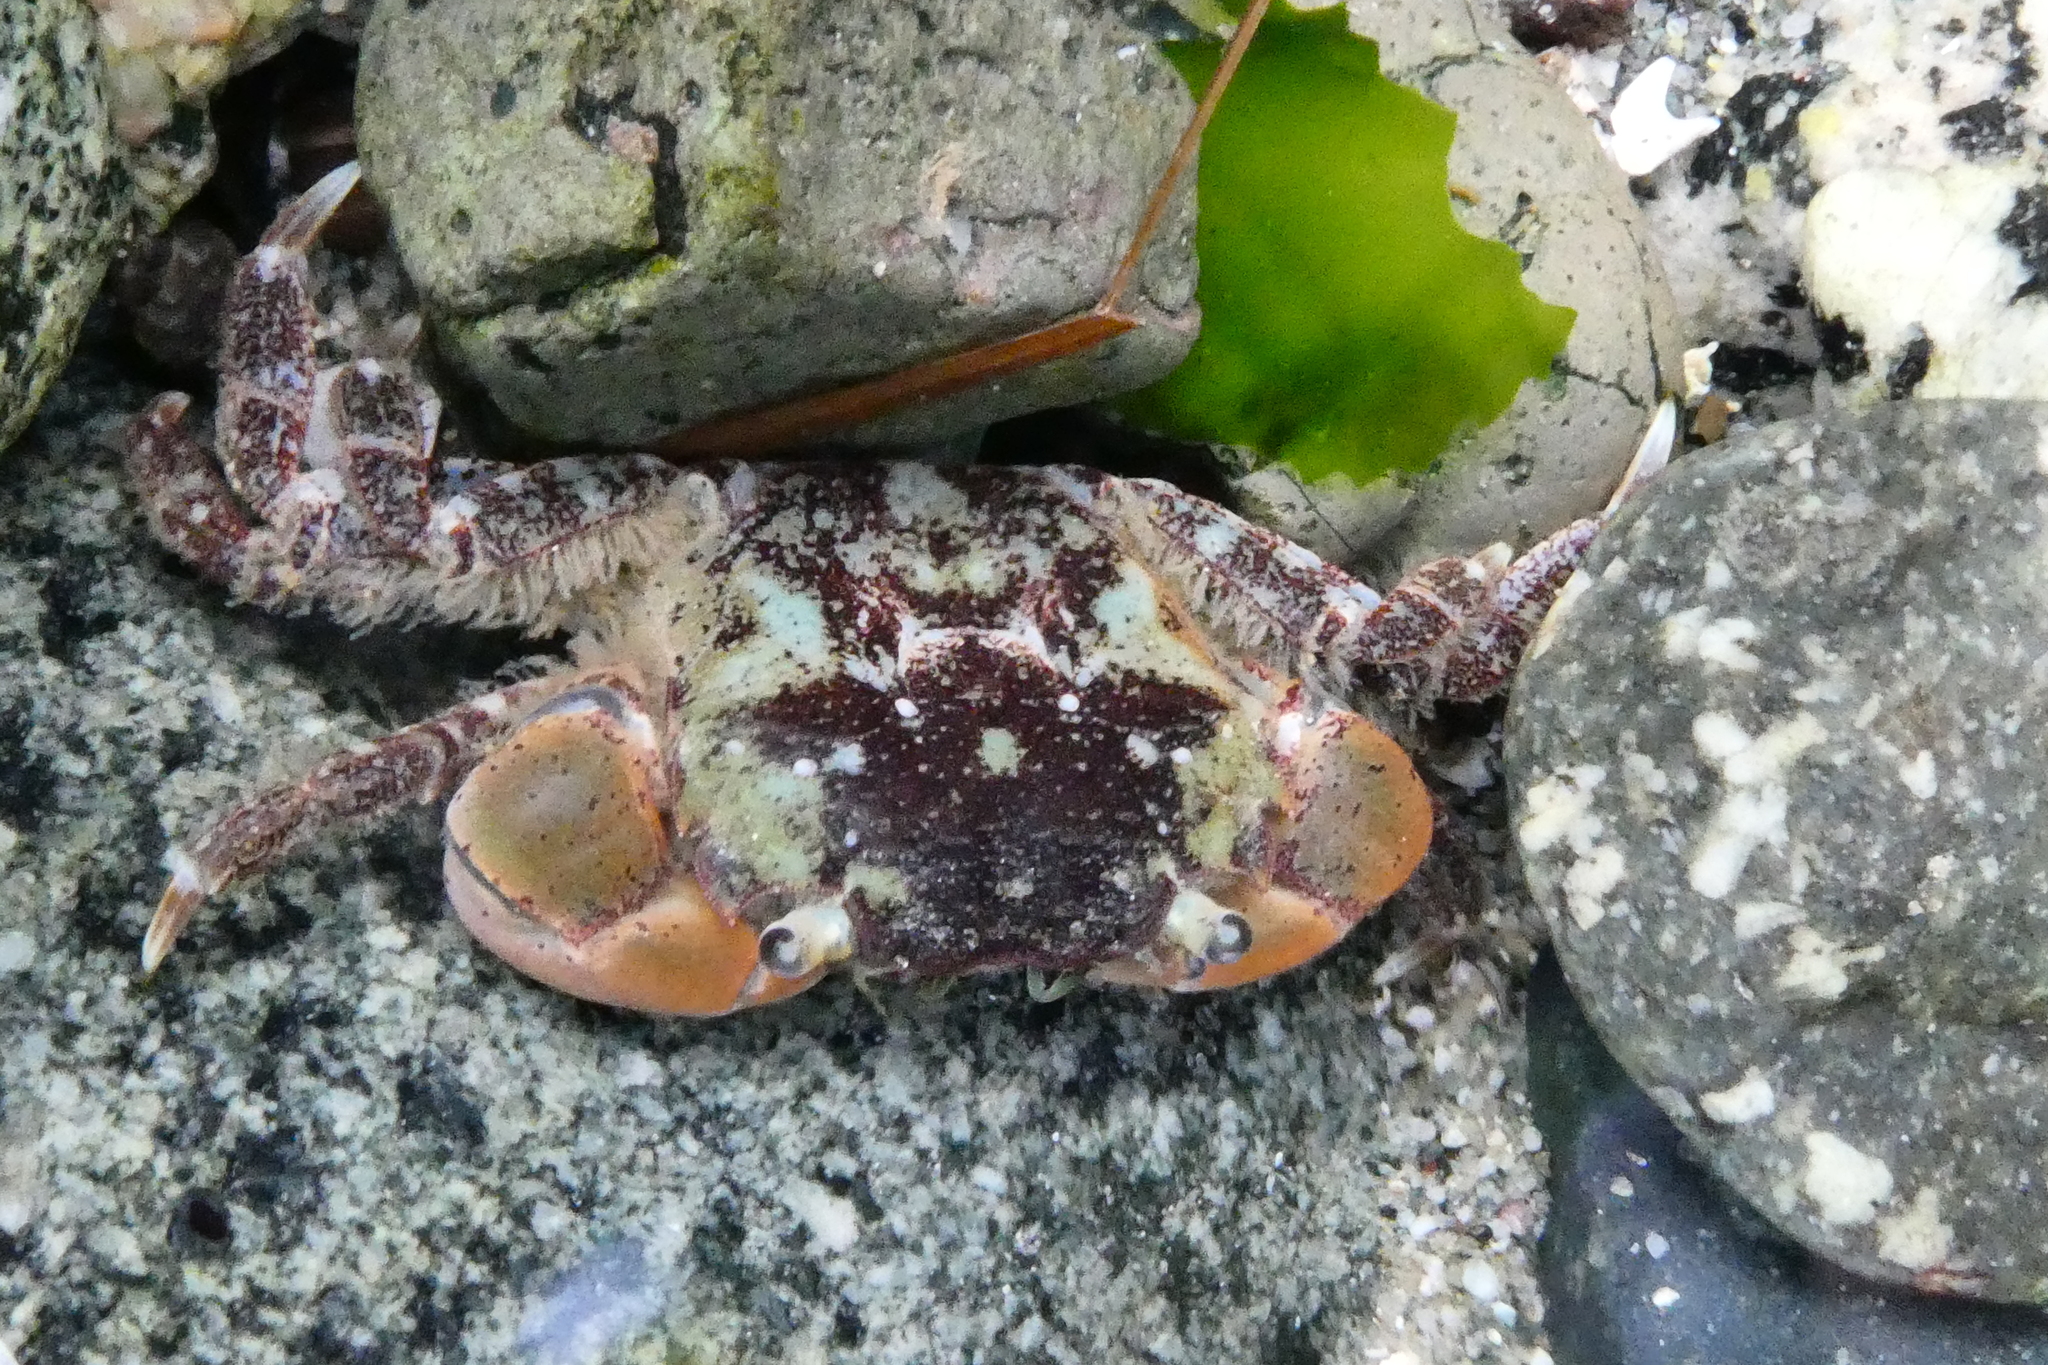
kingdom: Animalia
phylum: Arthropoda
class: Malacostraca
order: Decapoda
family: Varunidae
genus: Hemigrapsus
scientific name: Hemigrapsus oregonensis
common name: Yellow shore crab
